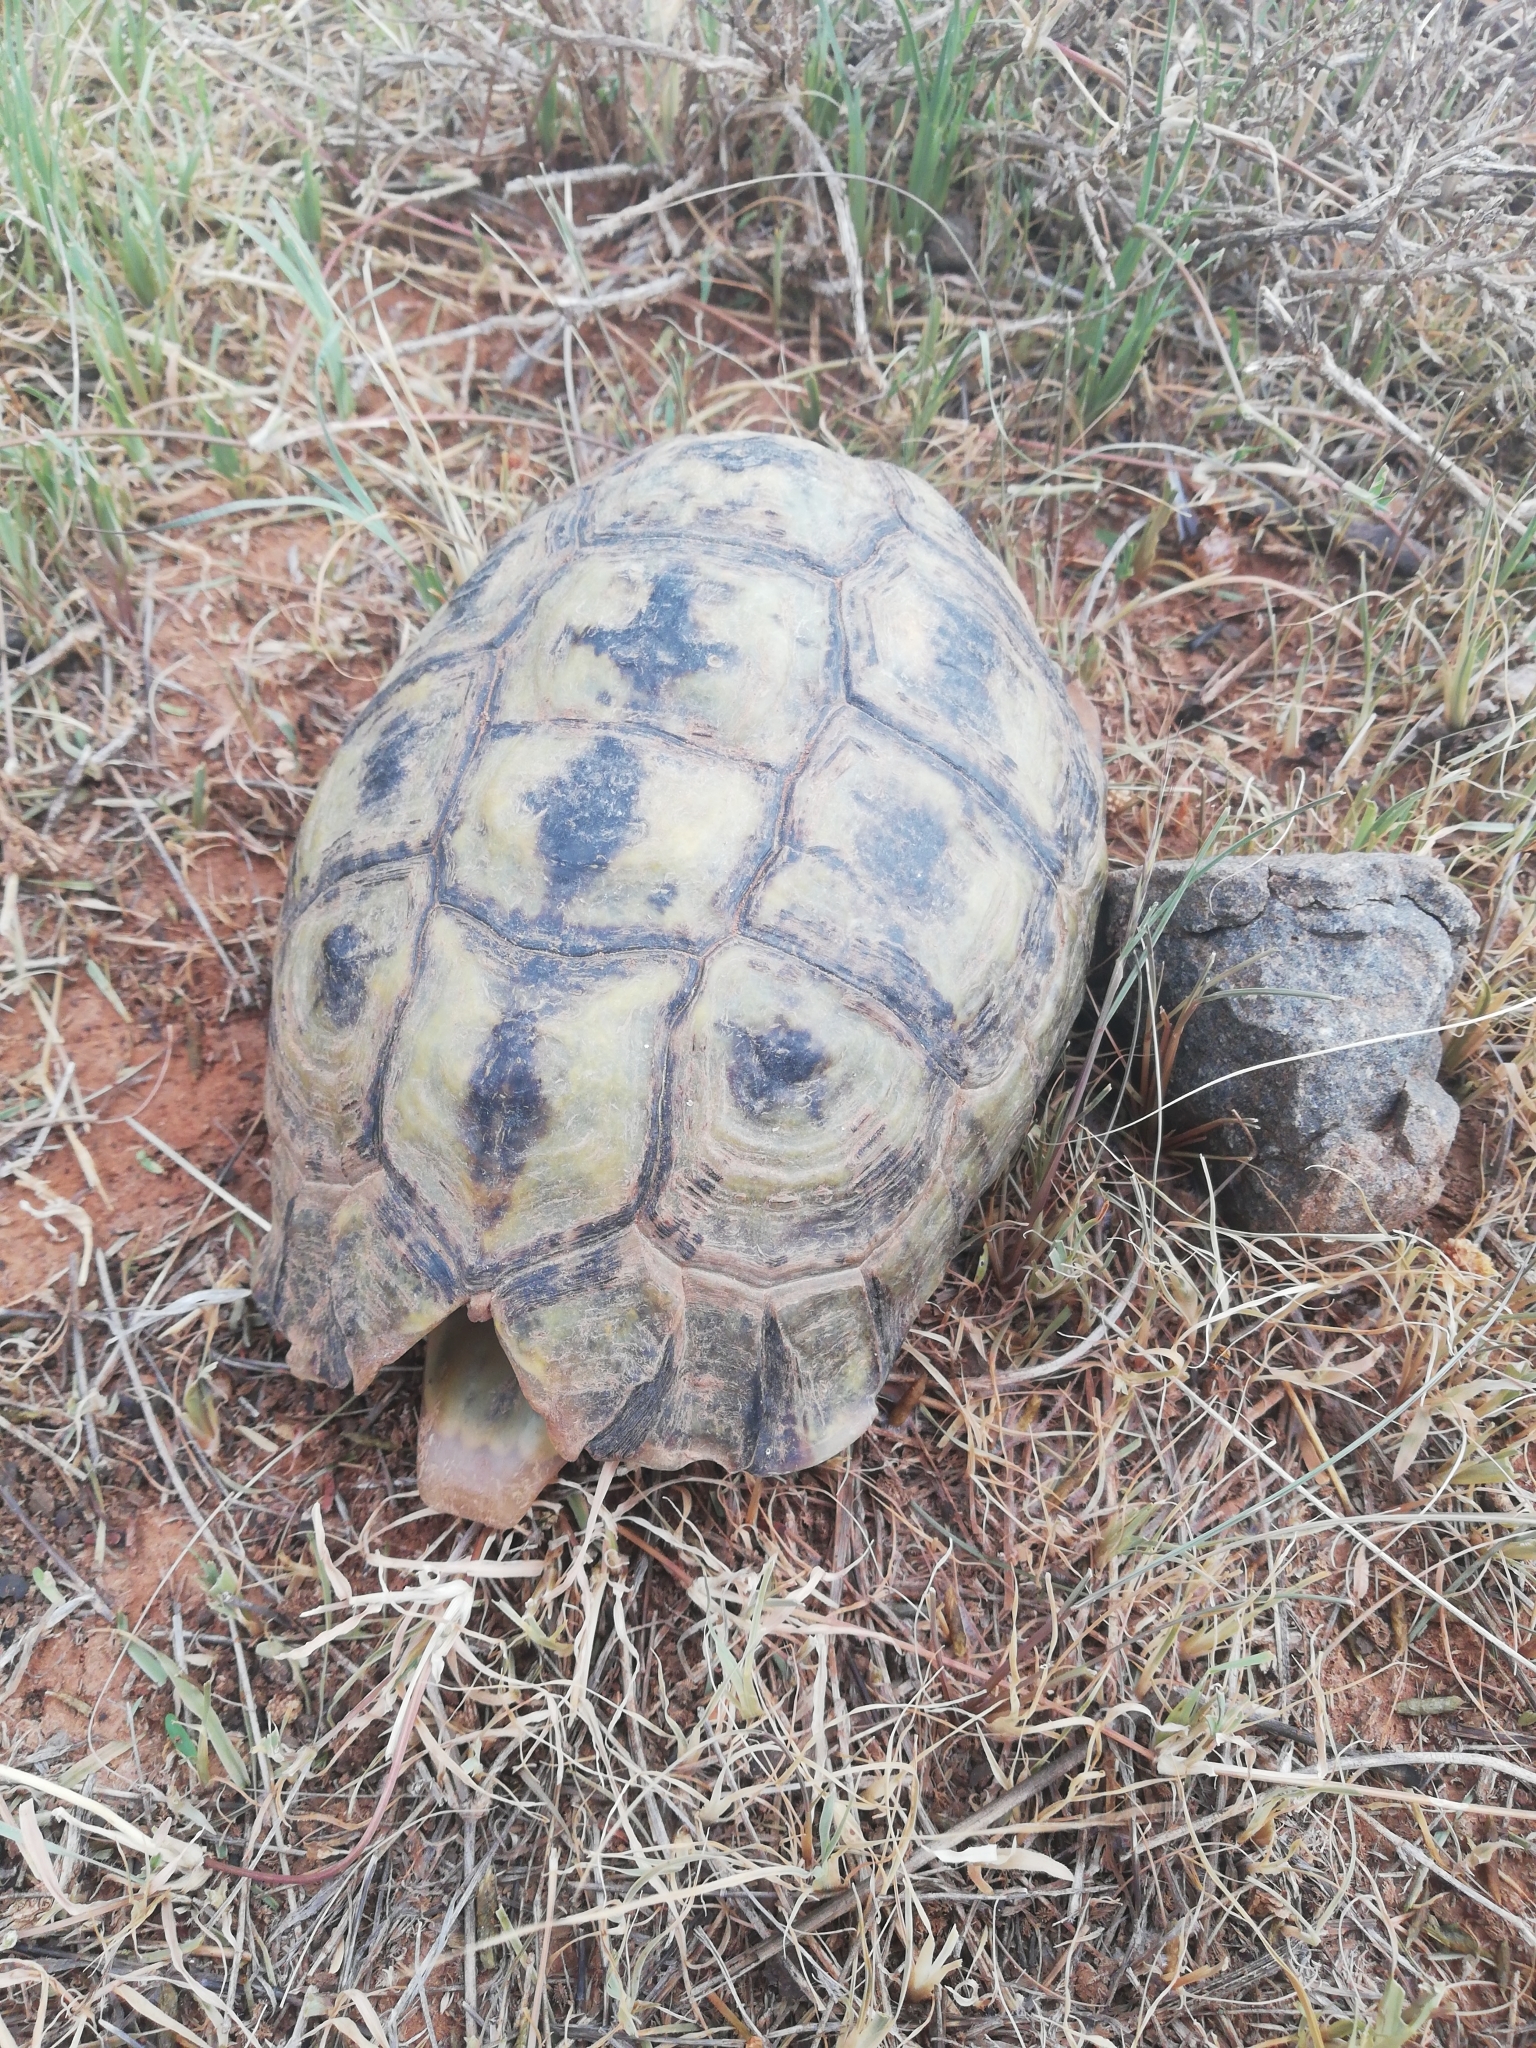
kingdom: Animalia
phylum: Chordata
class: Testudines
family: Testudinidae
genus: Chersina
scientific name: Chersina angulata
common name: South african bowsprit tortoise
